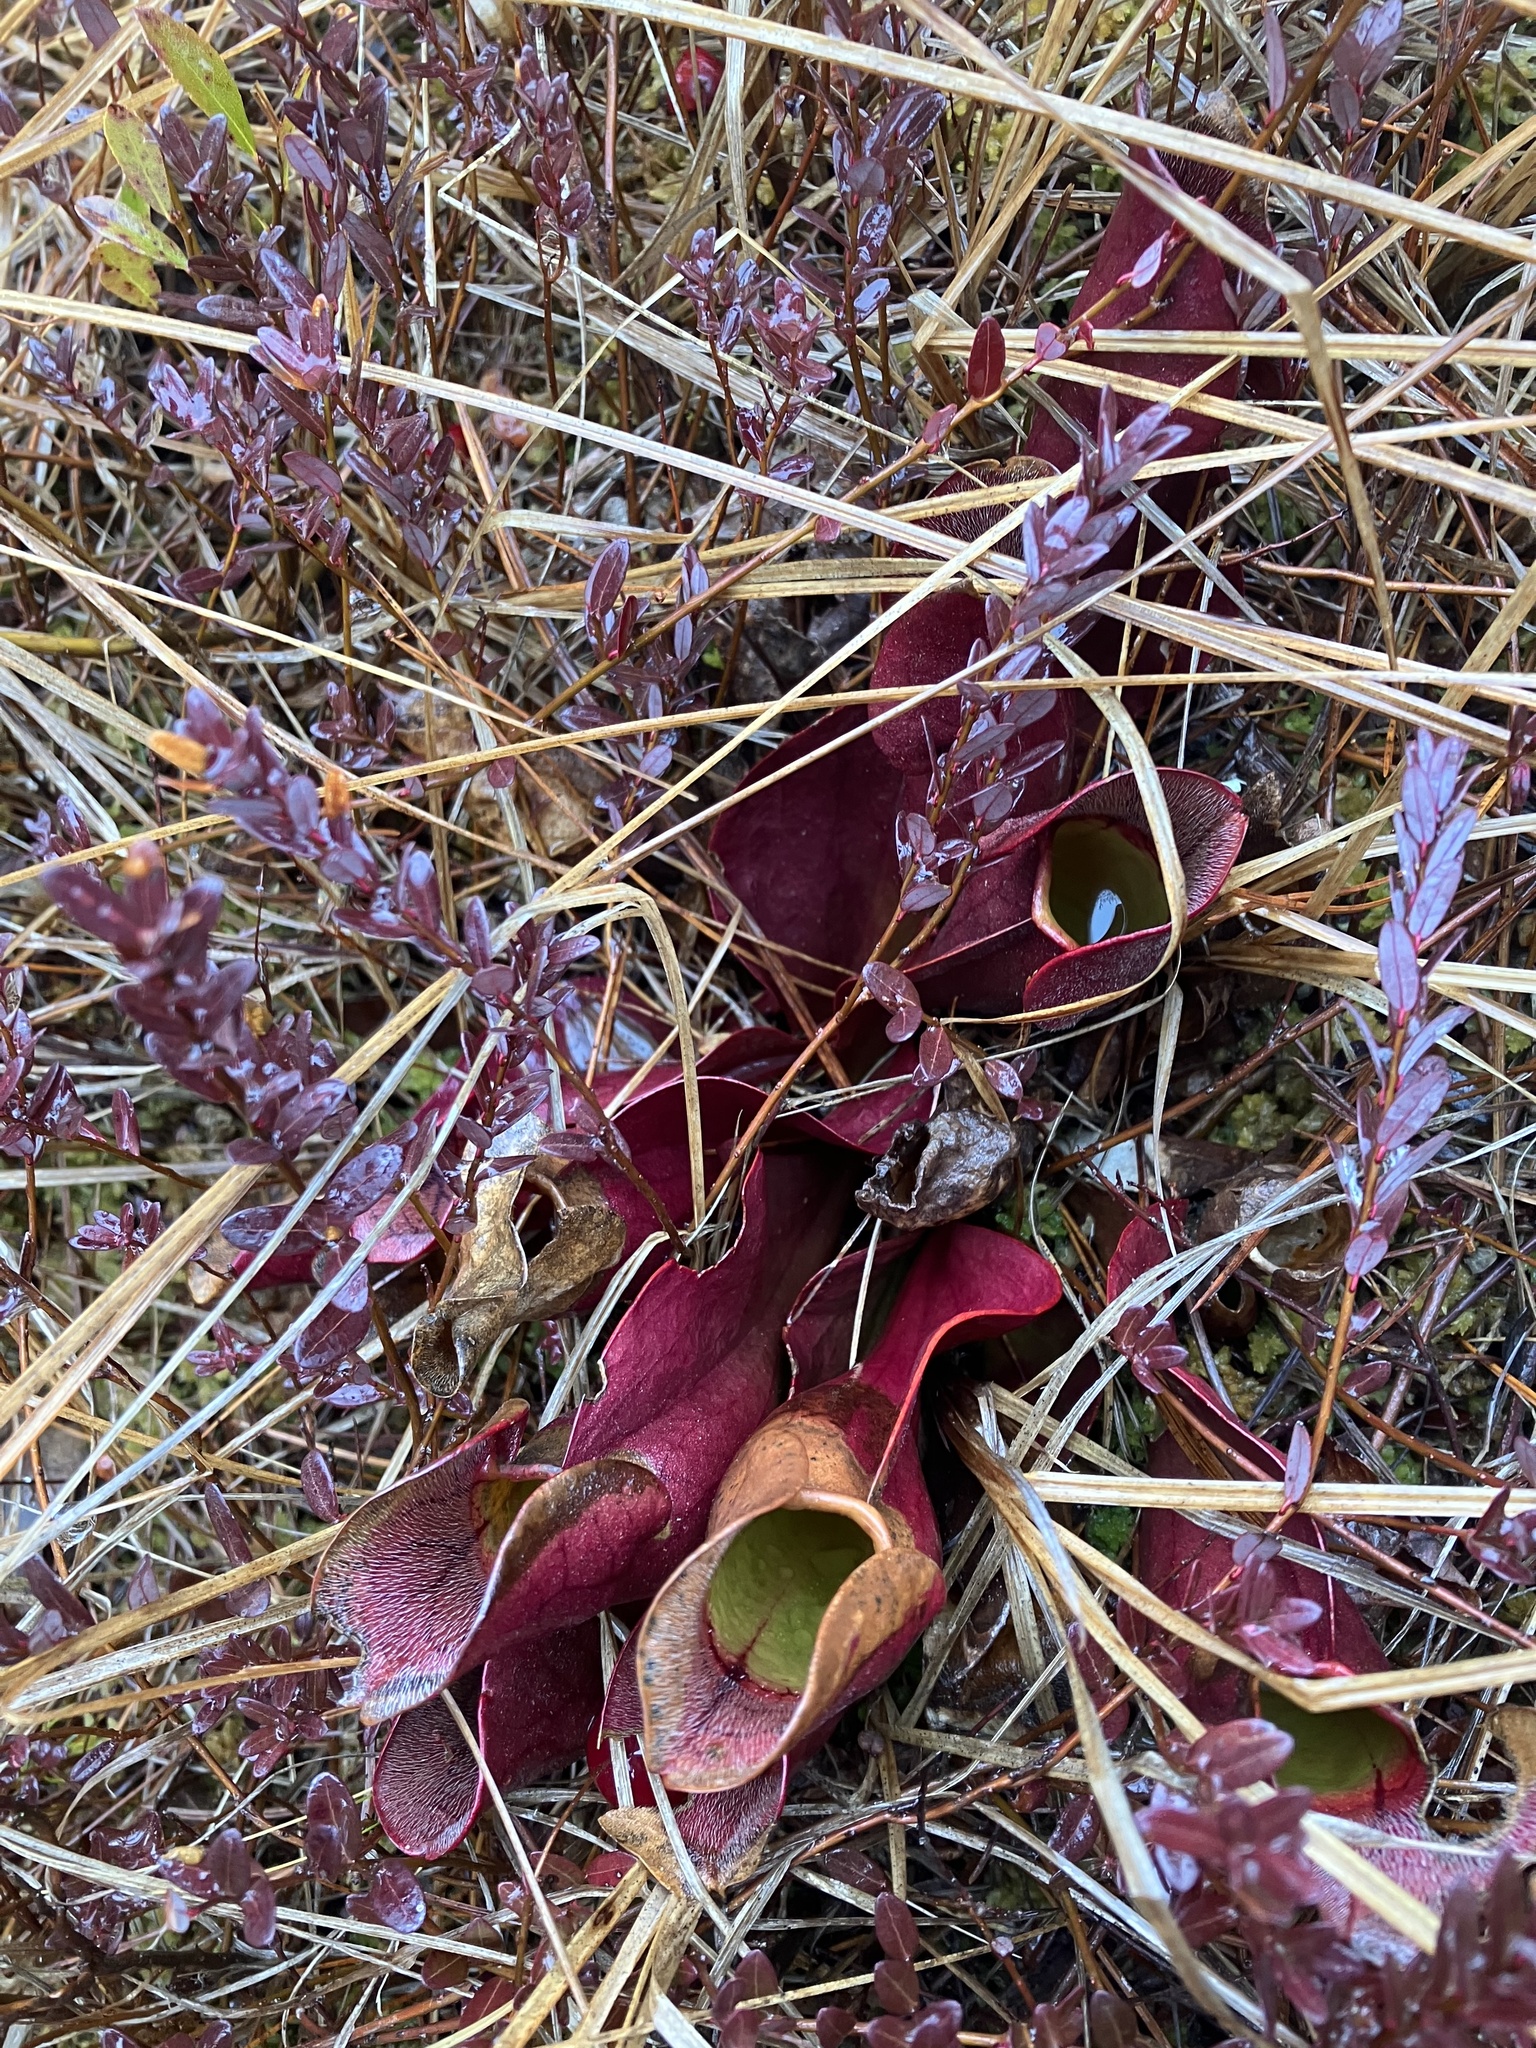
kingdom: Plantae
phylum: Tracheophyta
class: Magnoliopsida
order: Ericales
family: Sarraceniaceae
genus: Sarracenia
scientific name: Sarracenia purpurea
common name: Pitcherplant
